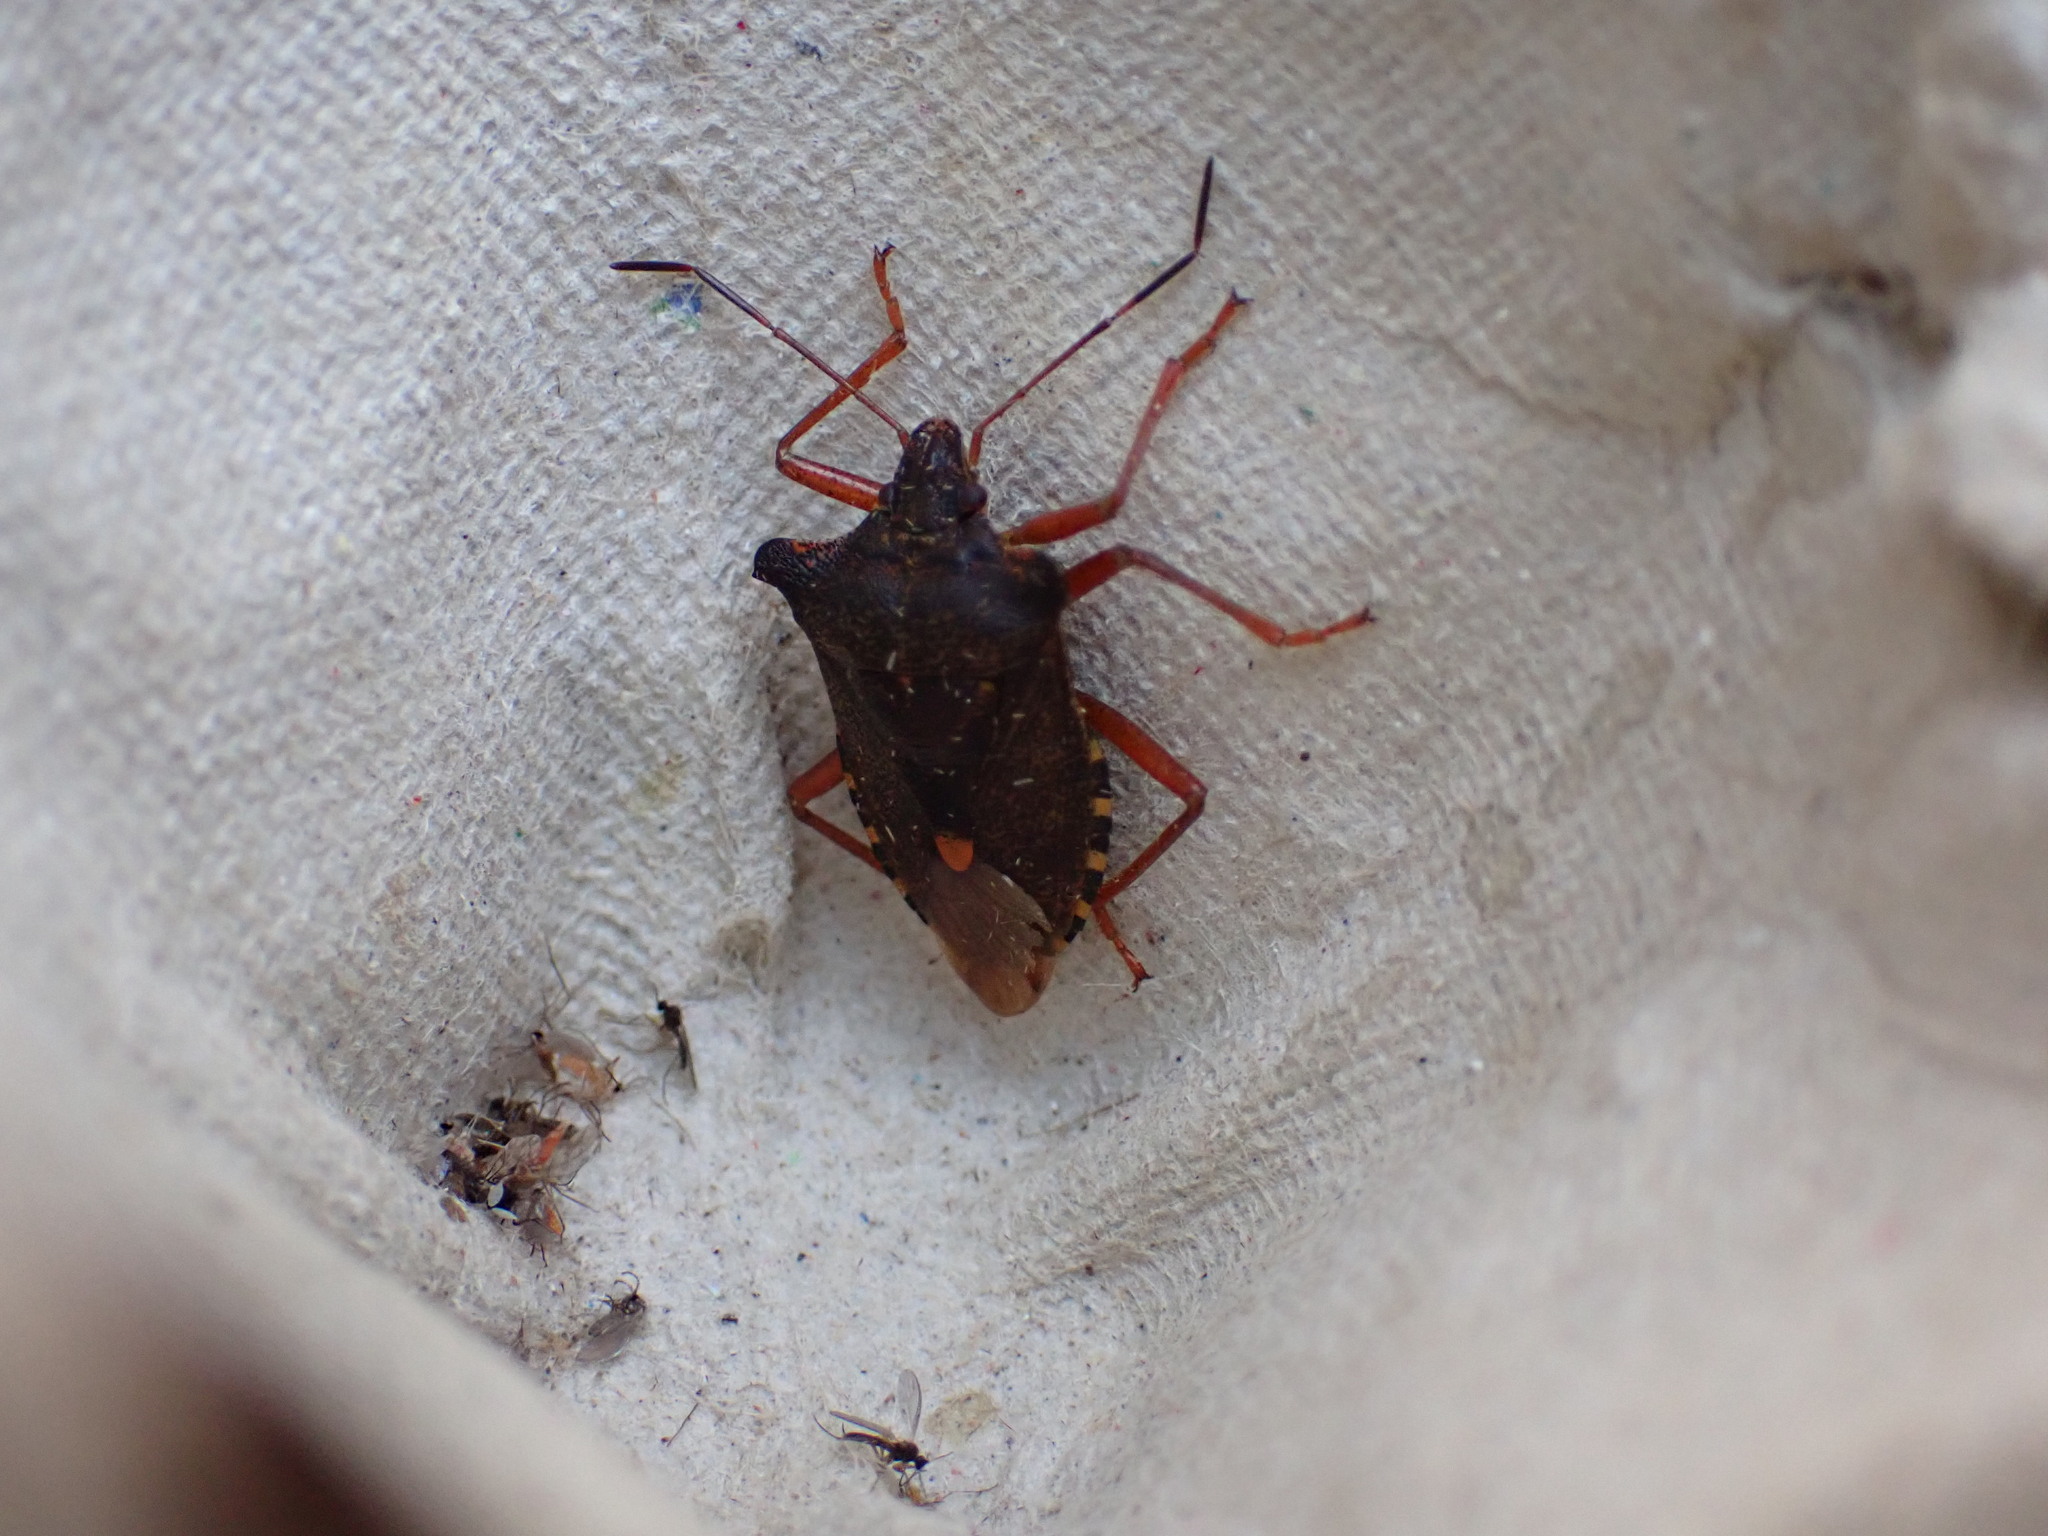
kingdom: Animalia
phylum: Arthropoda
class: Insecta
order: Hemiptera
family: Pentatomidae
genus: Pentatoma
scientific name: Pentatoma rufipes
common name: Forest bug
